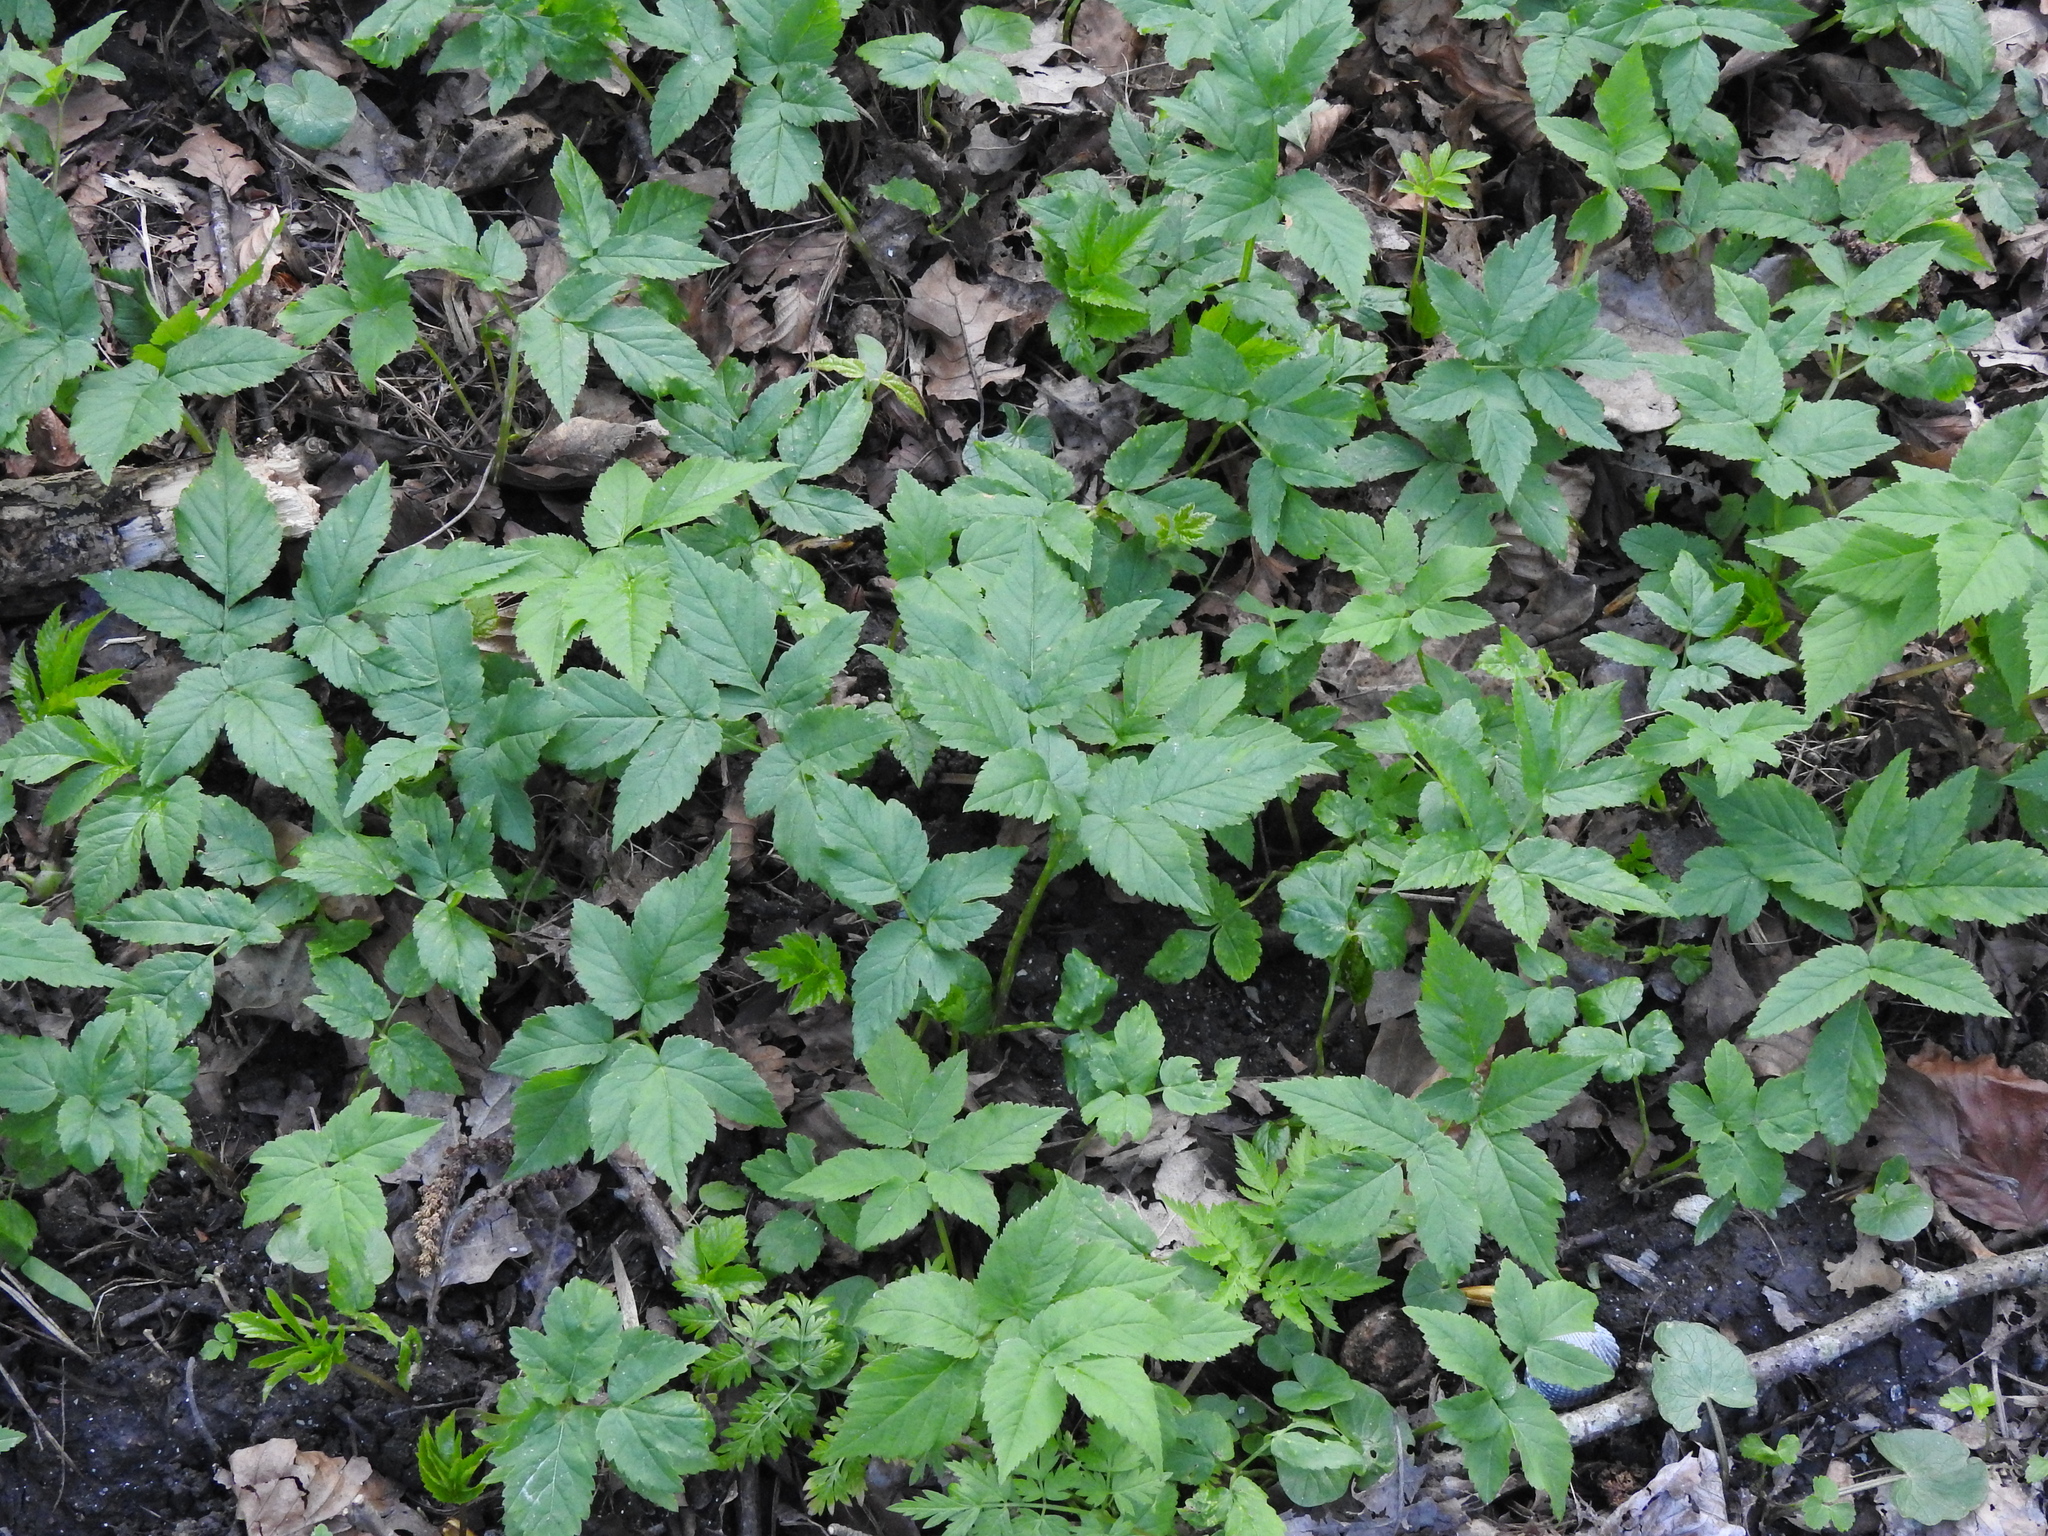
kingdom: Plantae
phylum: Tracheophyta
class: Magnoliopsida
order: Apiales
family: Apiaceae
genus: Aegopodium
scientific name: Aegopodium podagraria
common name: Ground-elder
